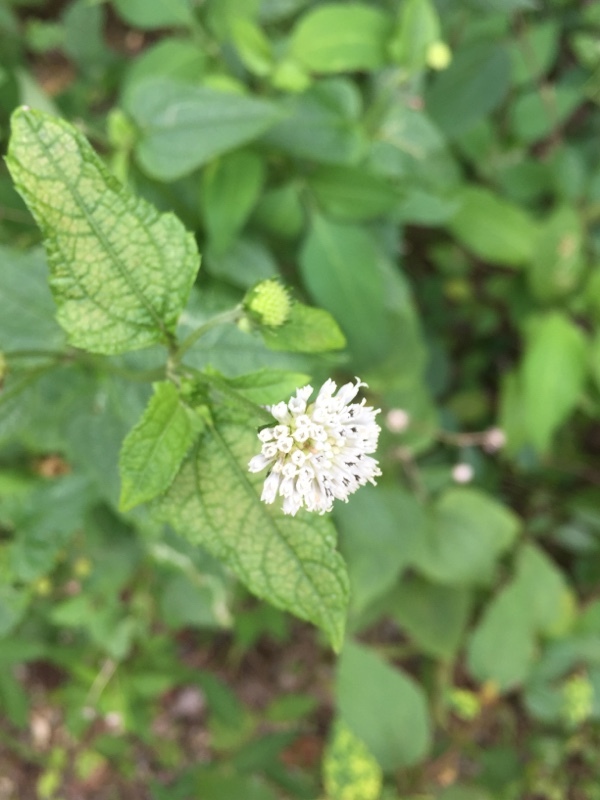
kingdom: Plantae
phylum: Tracheophyta
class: Magnoliopsida
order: Asterales
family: Asteraceae
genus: Melanthera
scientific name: Melanthera nivea
